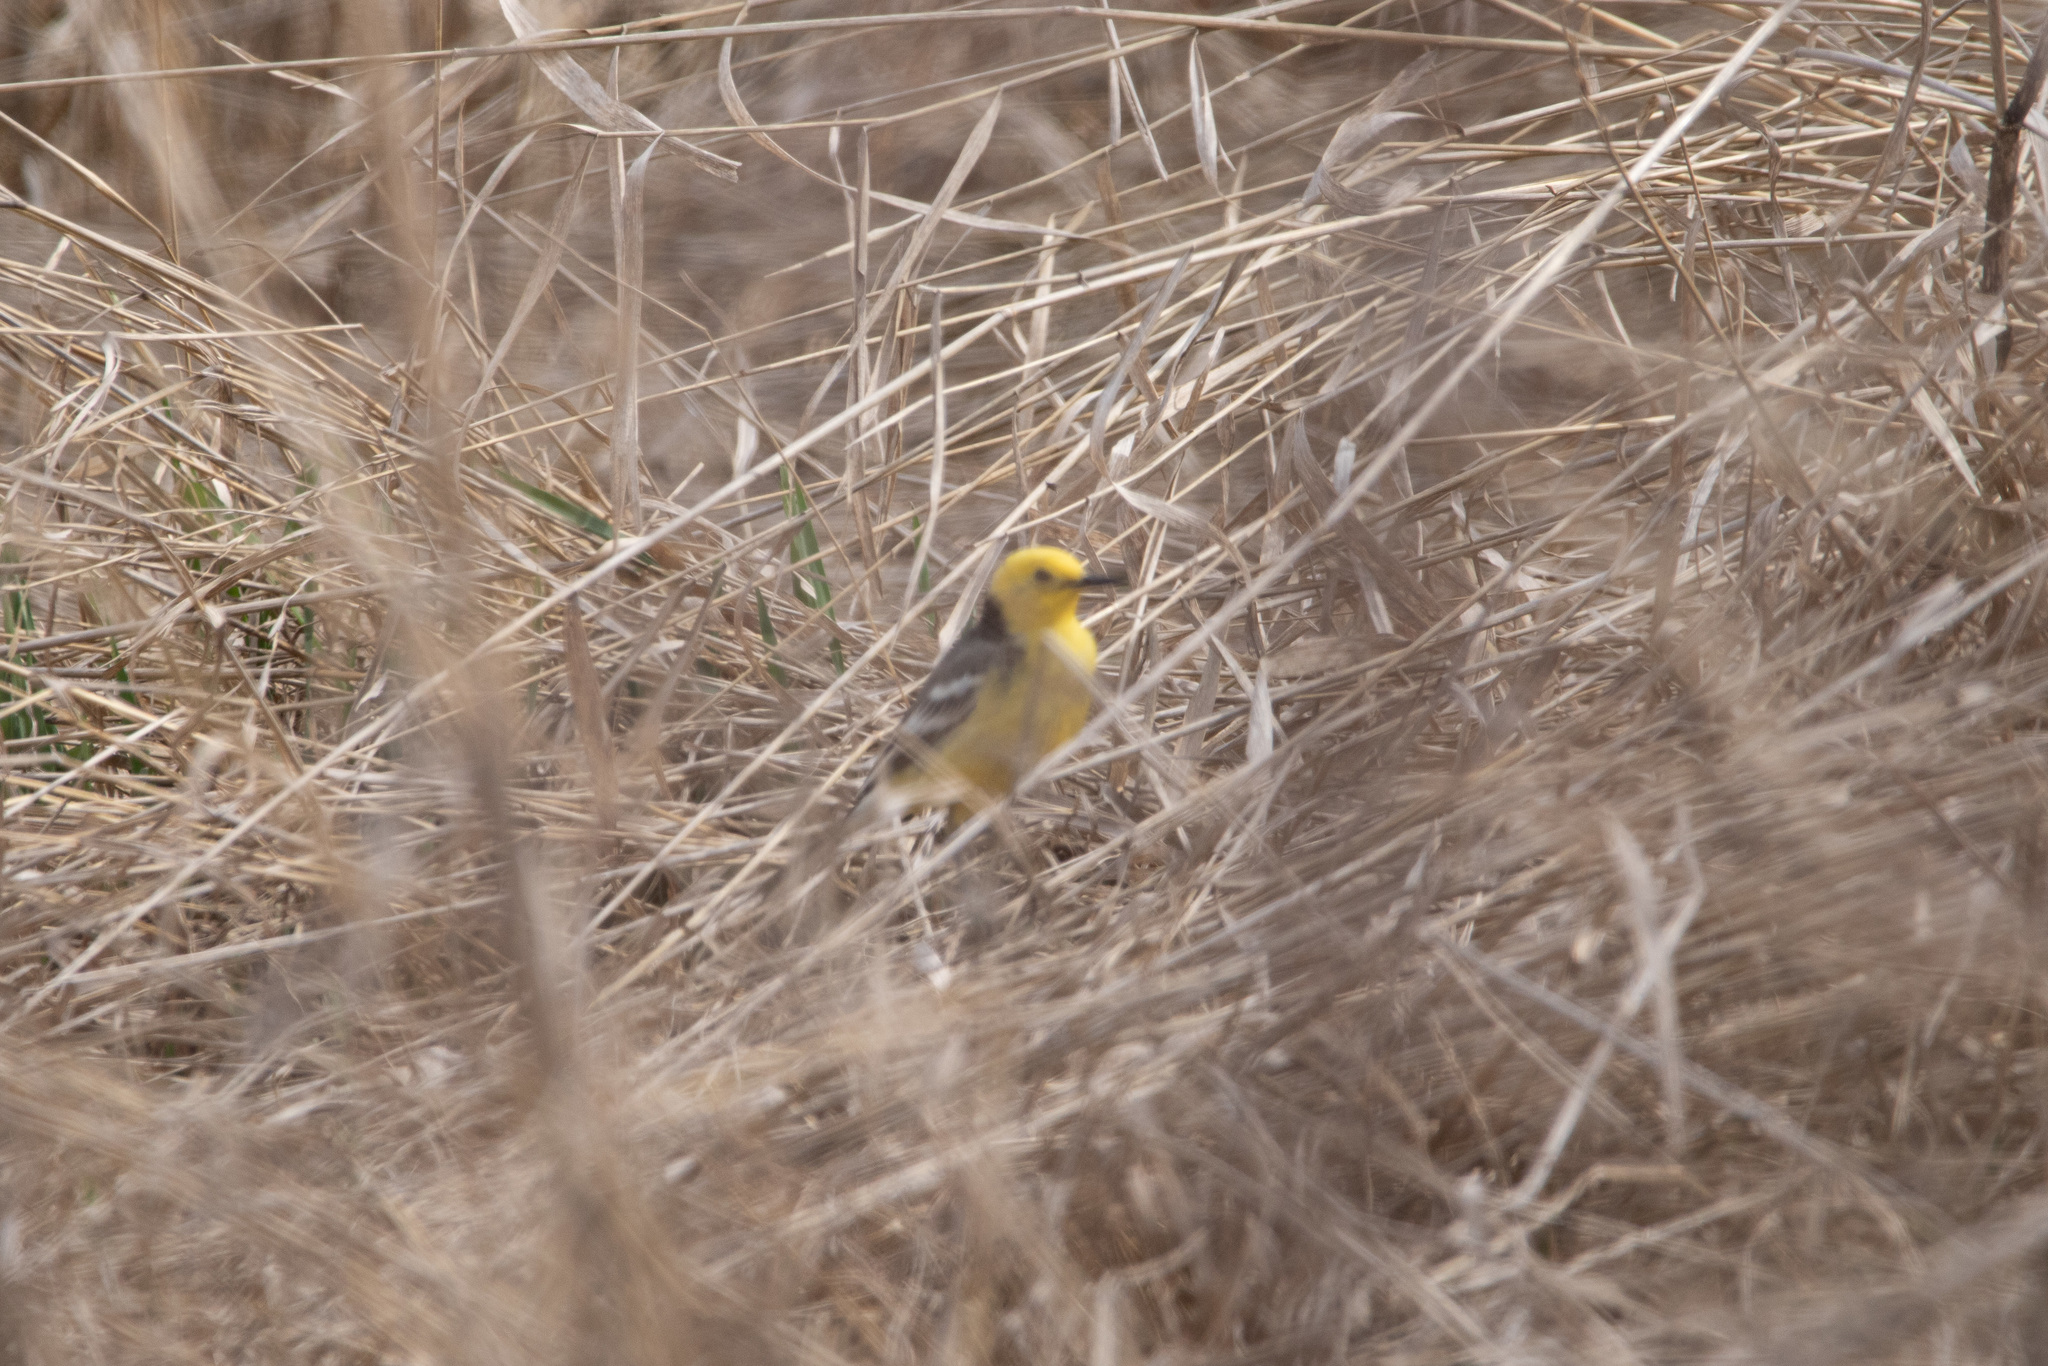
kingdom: Animalia
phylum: Chordata
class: Aves
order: Passeriformes
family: Motacillidae
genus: Motacilla
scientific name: Motacilla citreola
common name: Citrine wagtail
